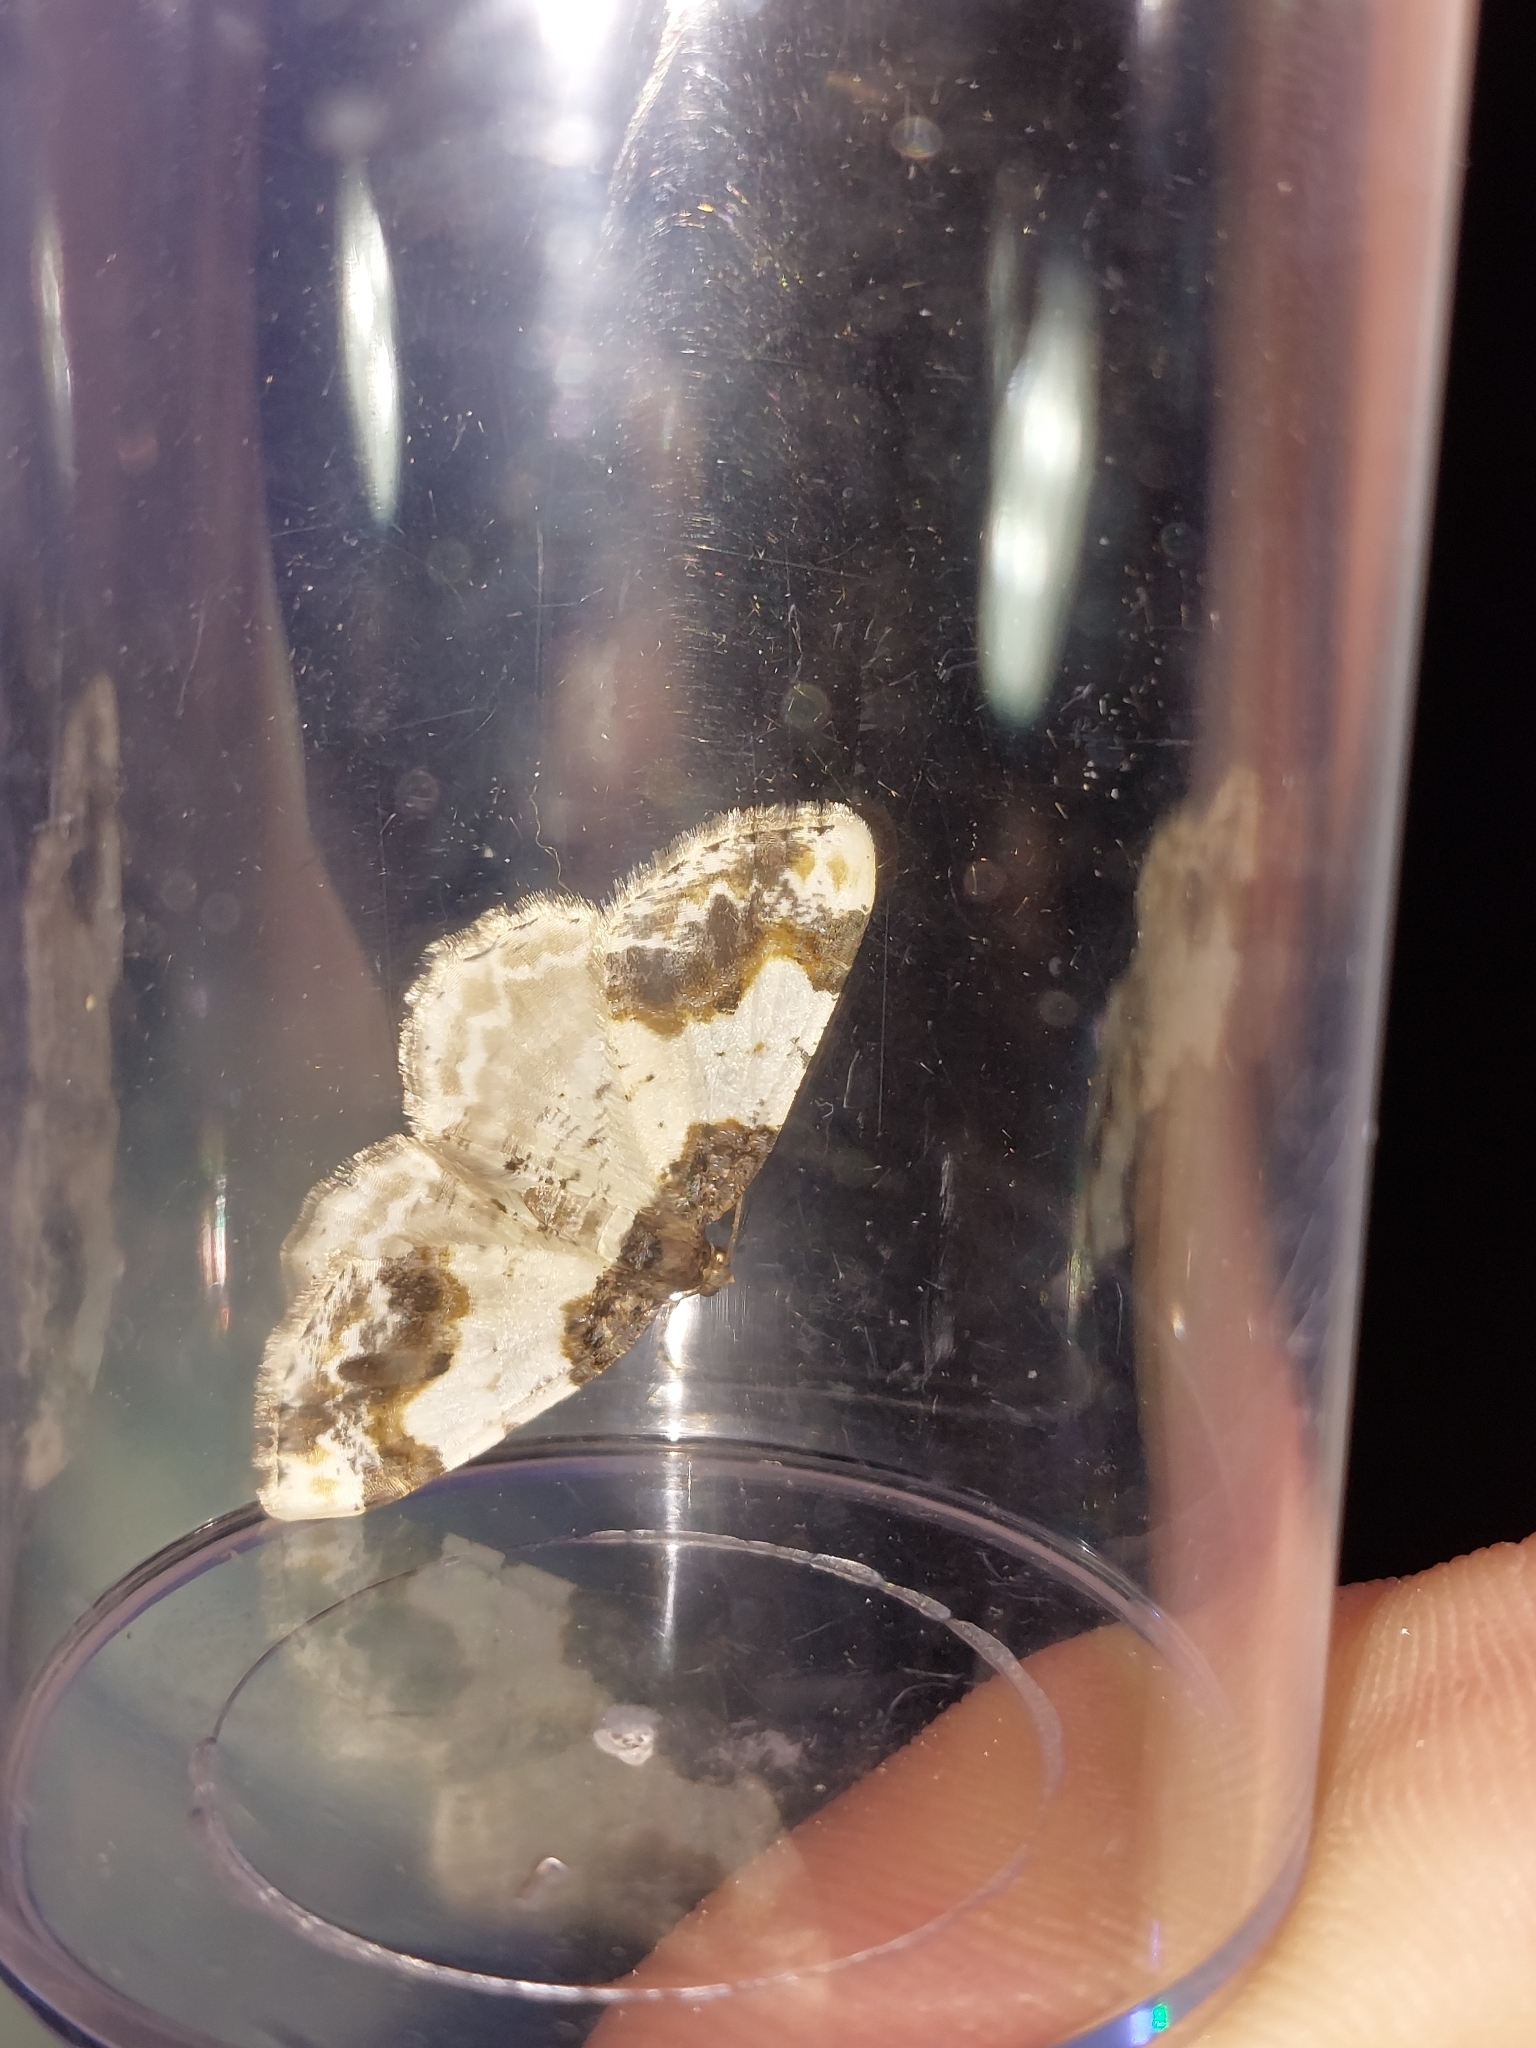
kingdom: Animalia
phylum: Arthropoda
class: Insecta
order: Lepidoptera
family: Geometridae
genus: Ligdia
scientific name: Ligdia adustata
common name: Scorched carpet
